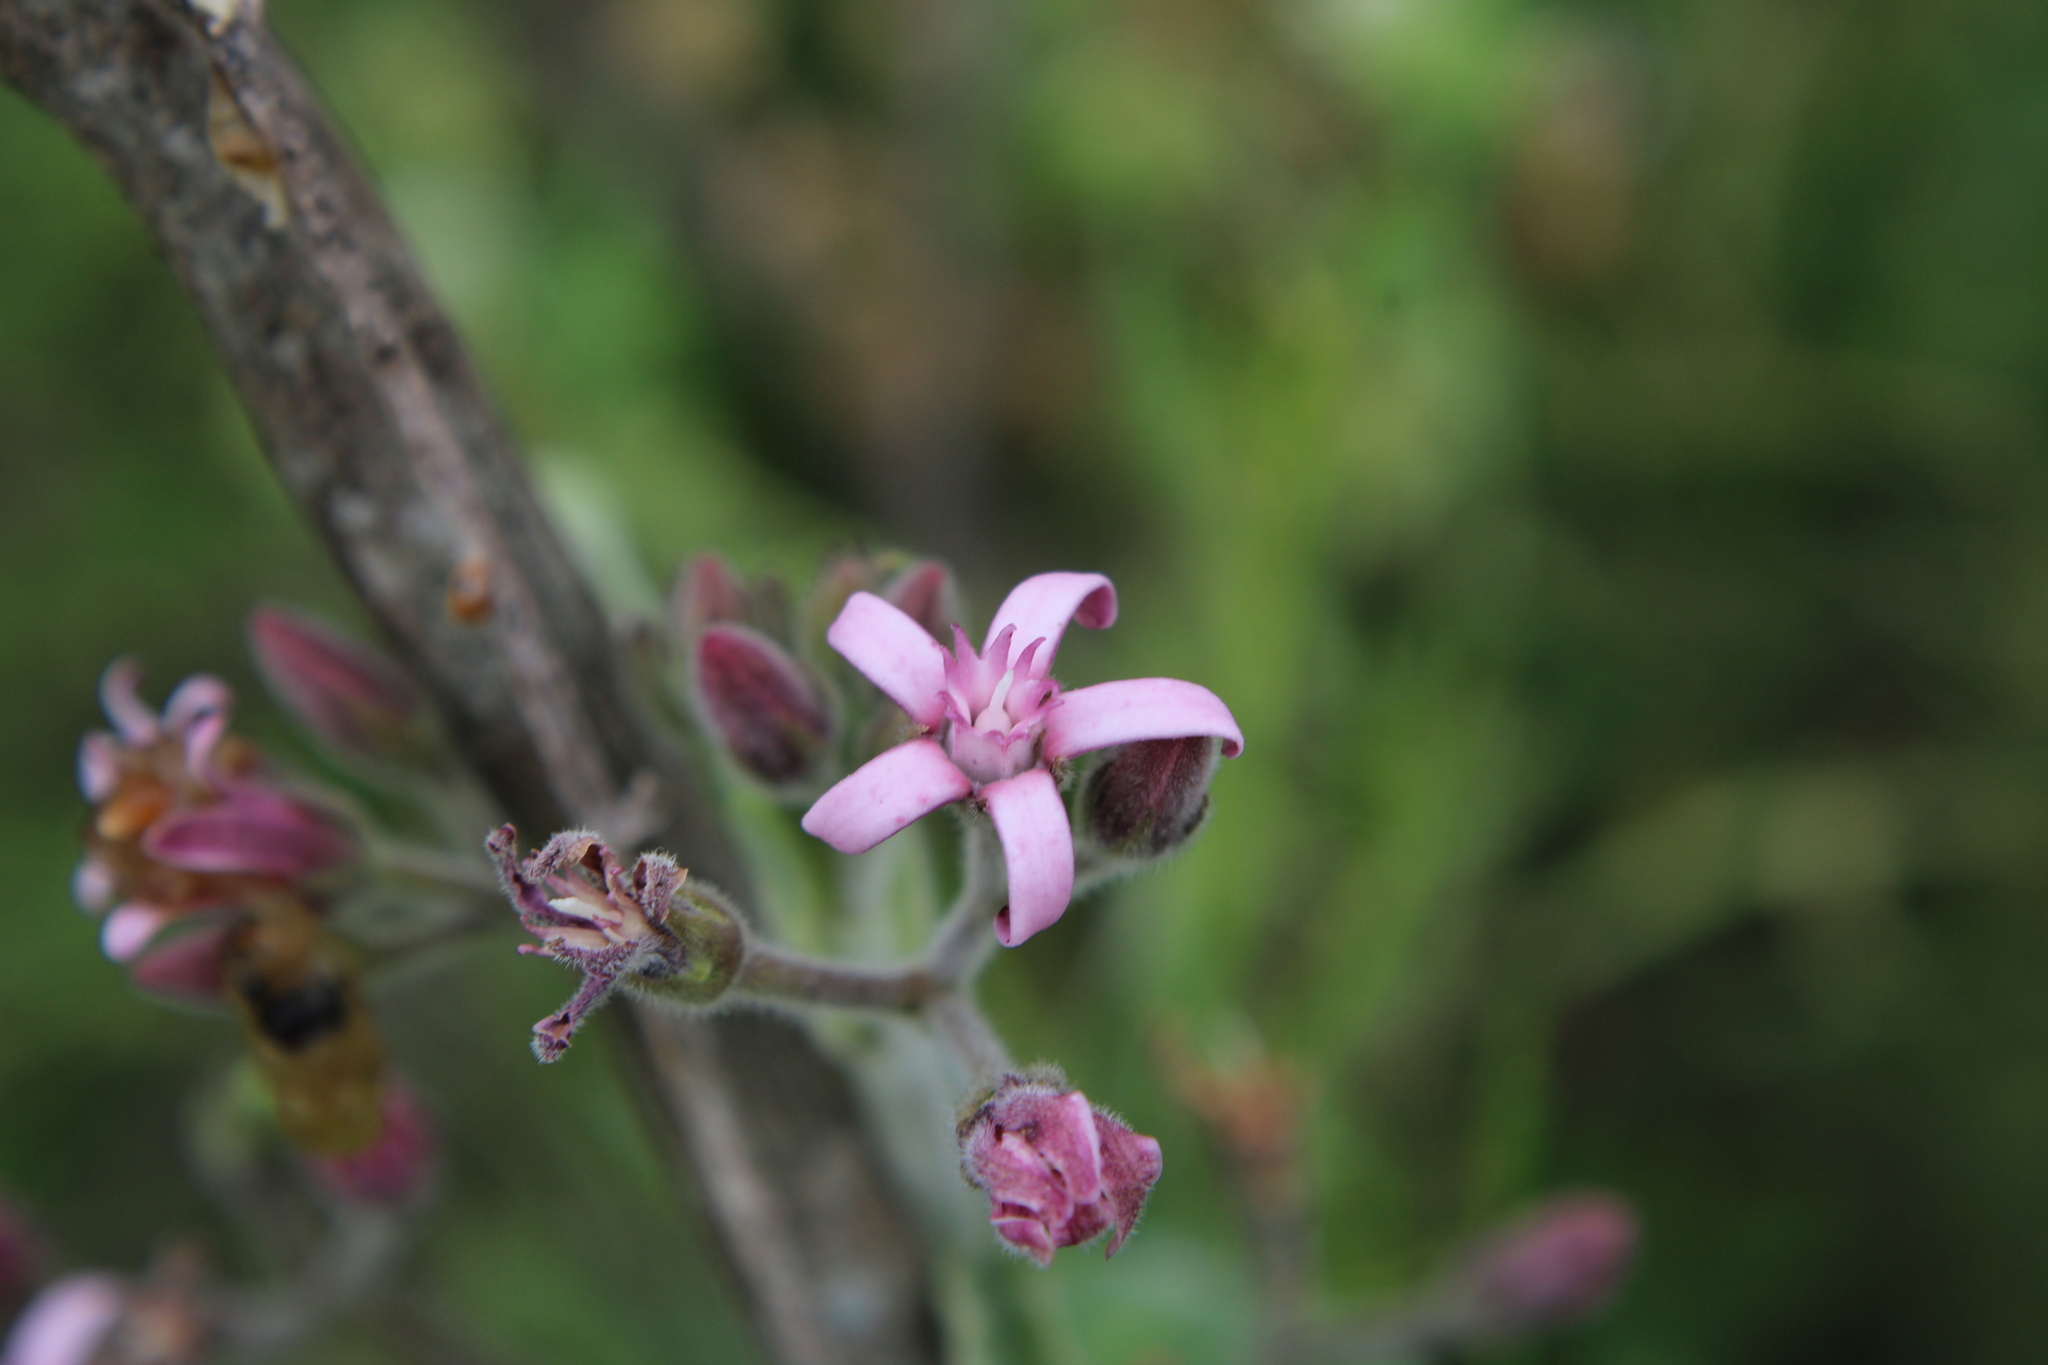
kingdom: Plantae
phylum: Tracheophyta
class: Magnoliopsida
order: Gentianales
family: Apocynaceae
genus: Oxypetalum
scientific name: Oxypetalum solanoides
